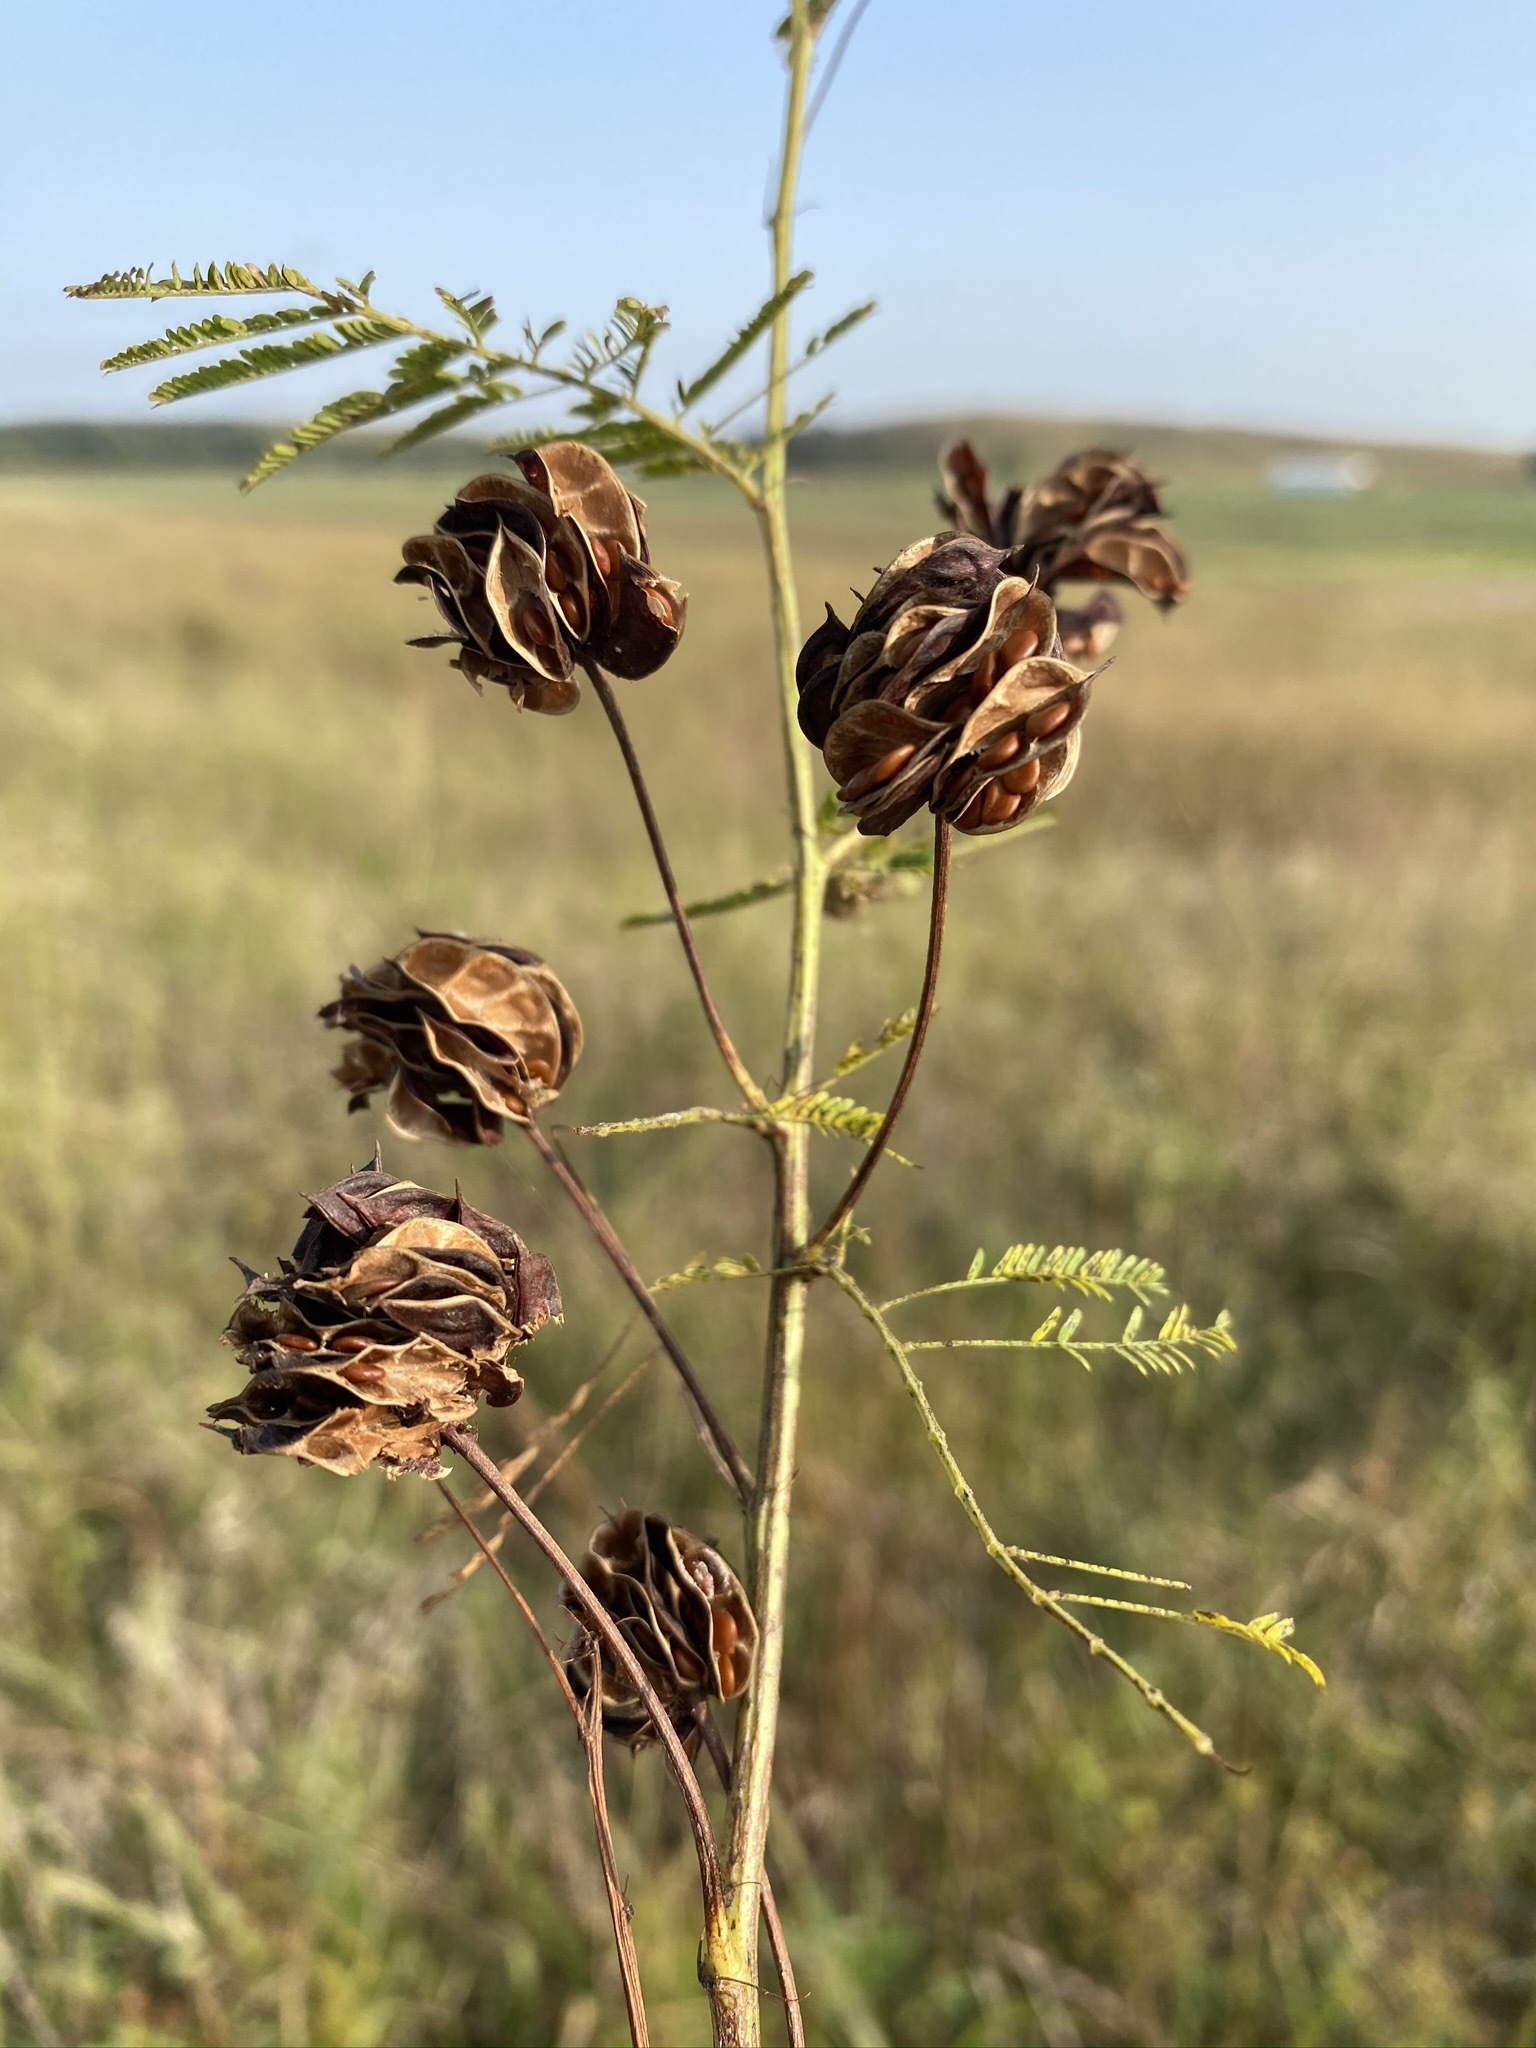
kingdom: Plantae
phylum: Tracheophyta
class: Magnoliopsida
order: Fabales
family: Fabaceae
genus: Desmanthus
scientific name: Desmanthus illinoensis
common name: Illinois bundle-flower
